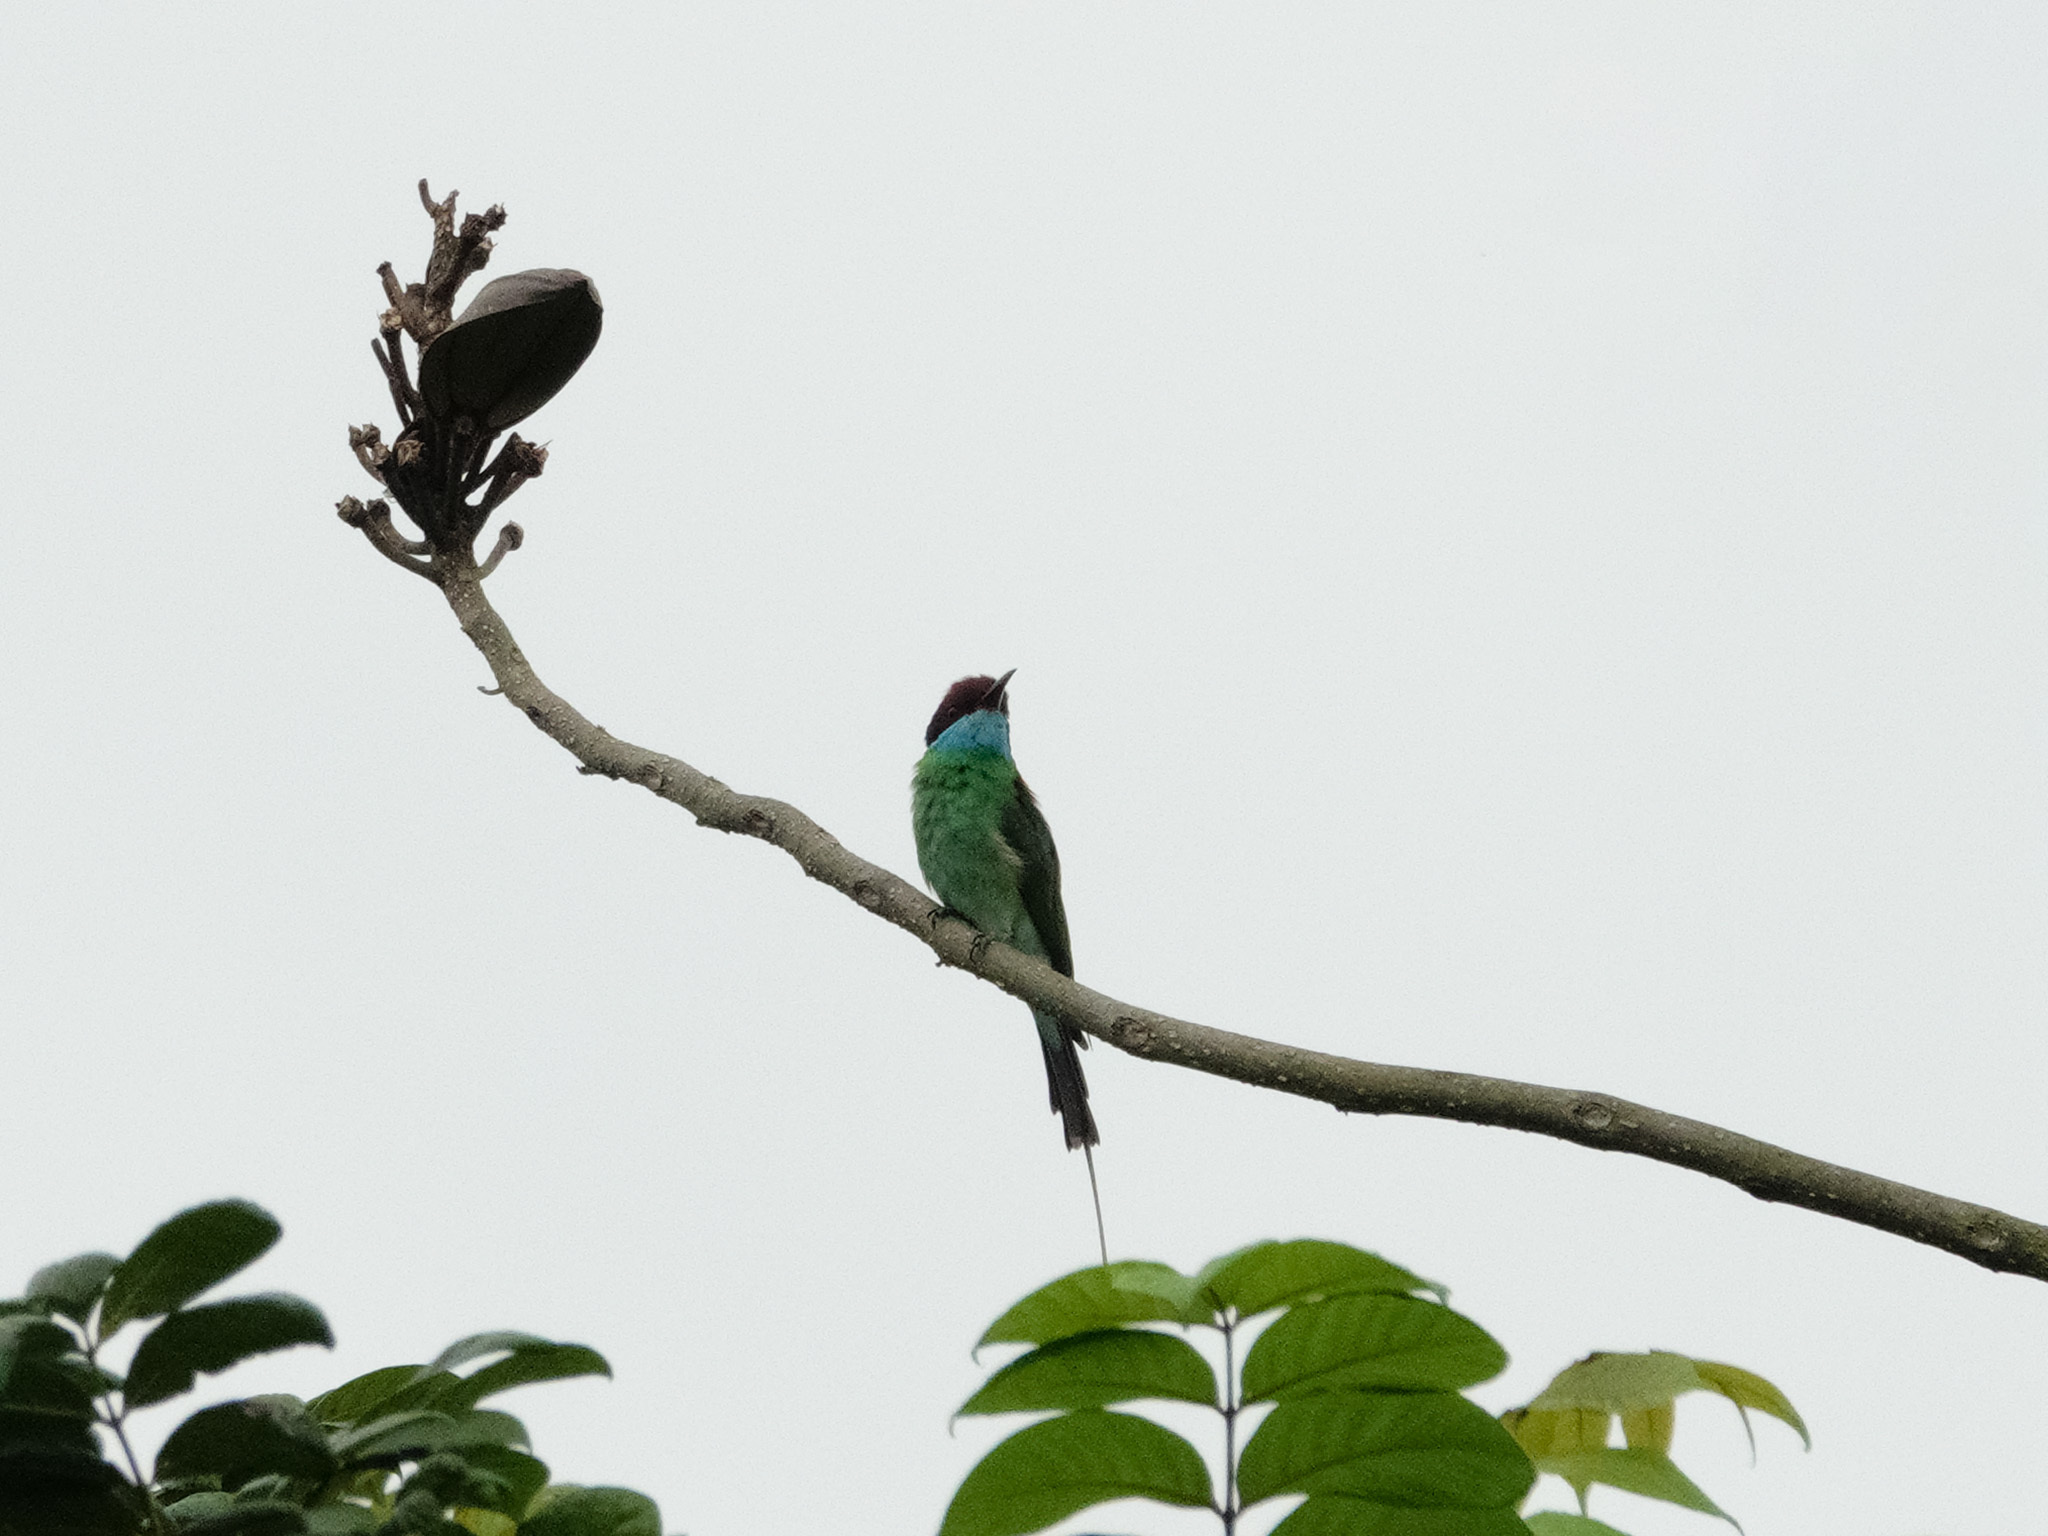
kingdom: Animalia
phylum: Chordata
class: Aves
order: Coraciiformes
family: Meropidae
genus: Merops
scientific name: Merops viridis
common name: Blue-throated bee-eater
